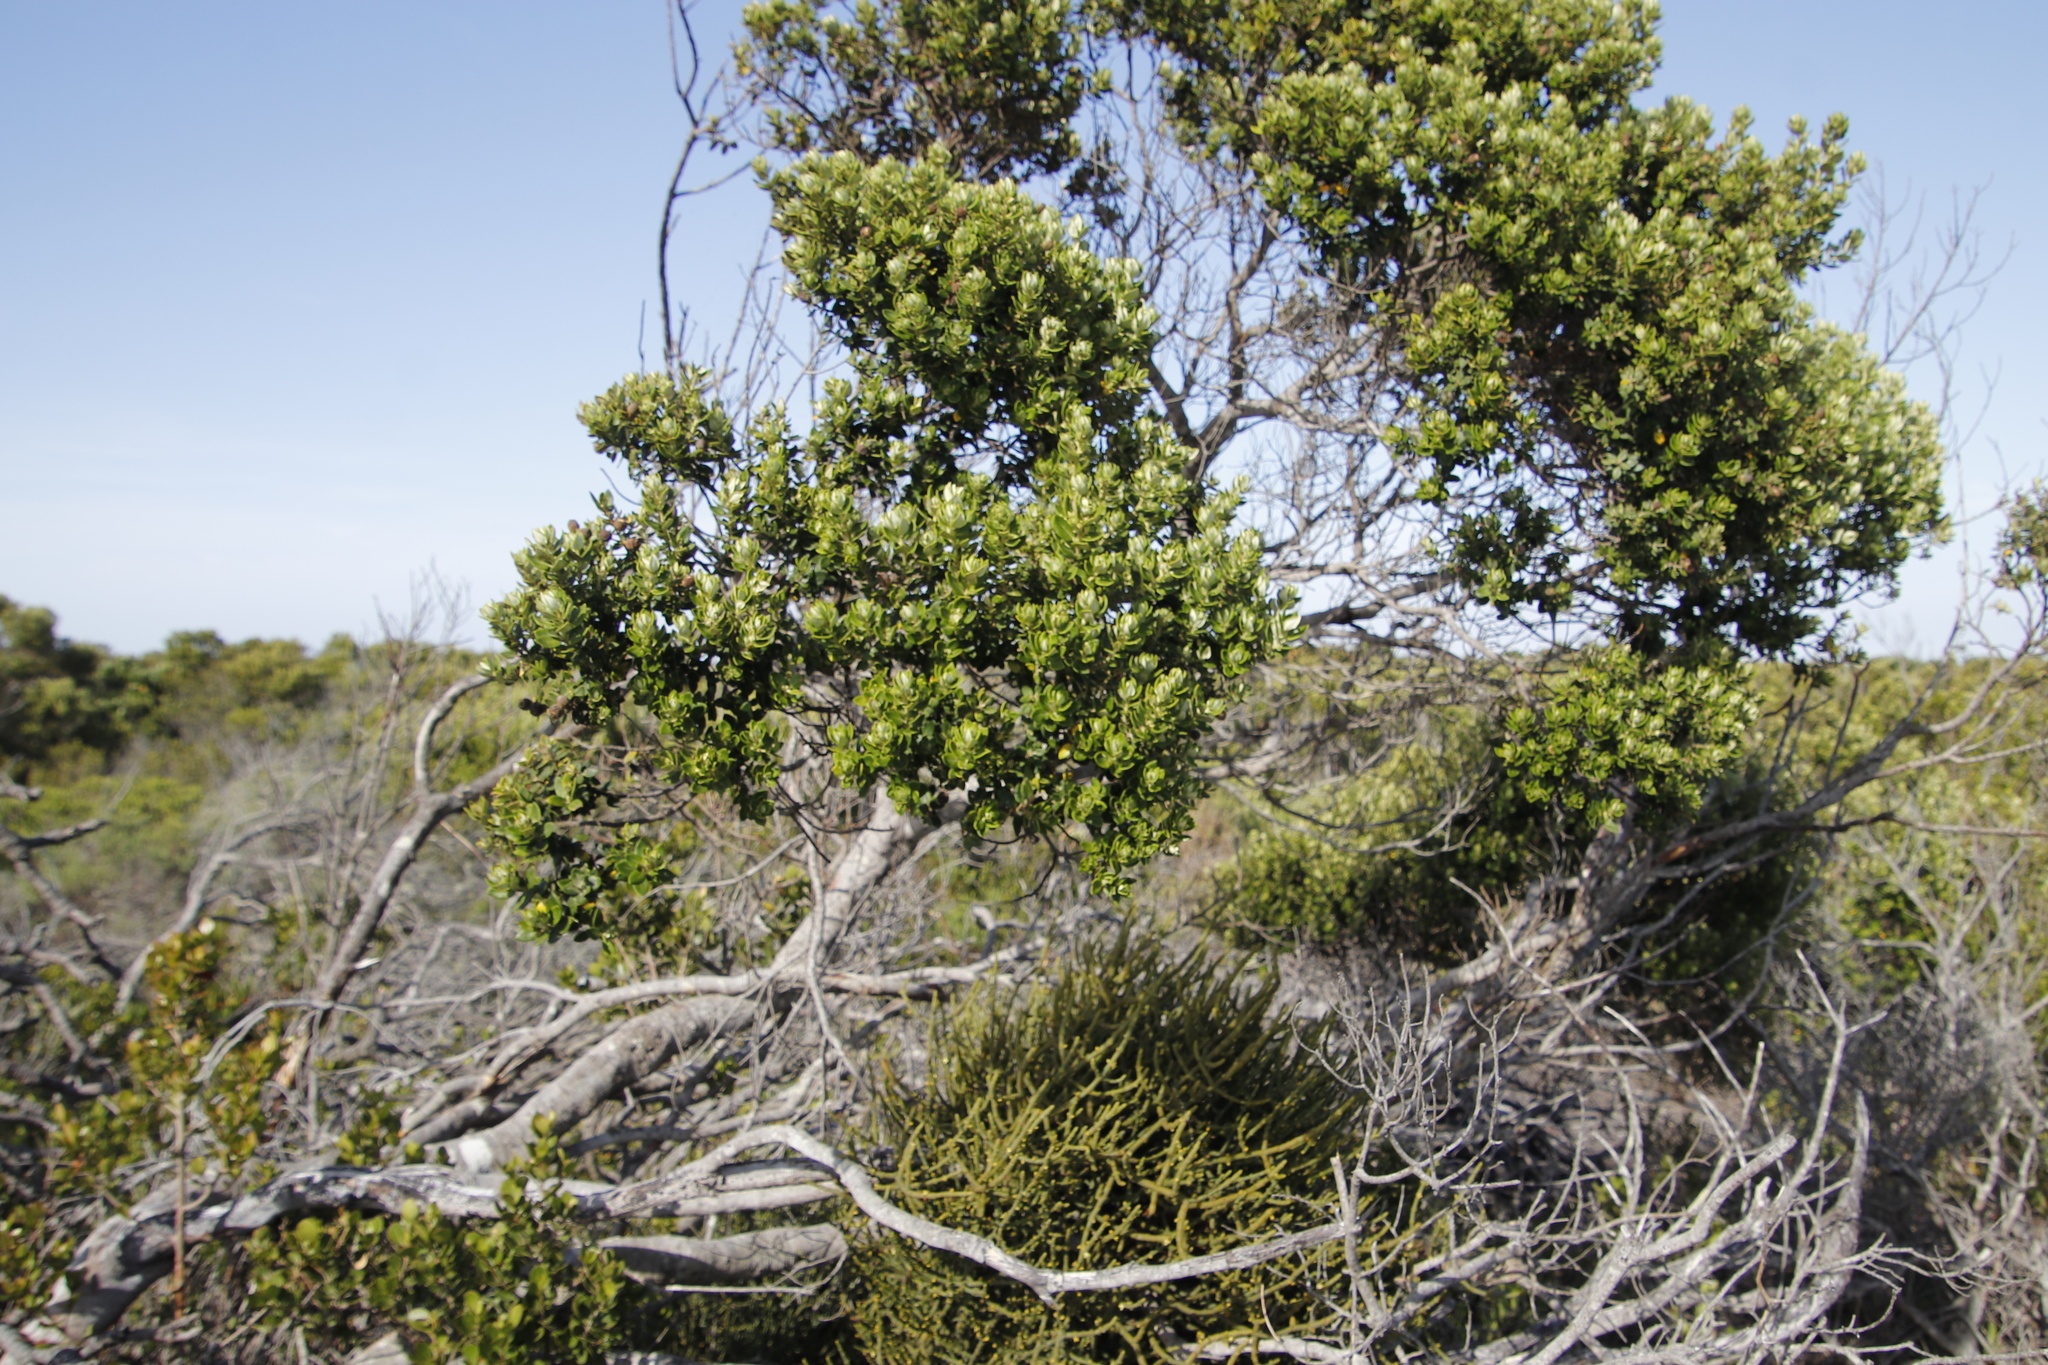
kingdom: Plantae
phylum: Tracheophyta
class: Magnoliopsida
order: Rosales
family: Rhamnaceae
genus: Phylica
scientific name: Phylica buxifolia
